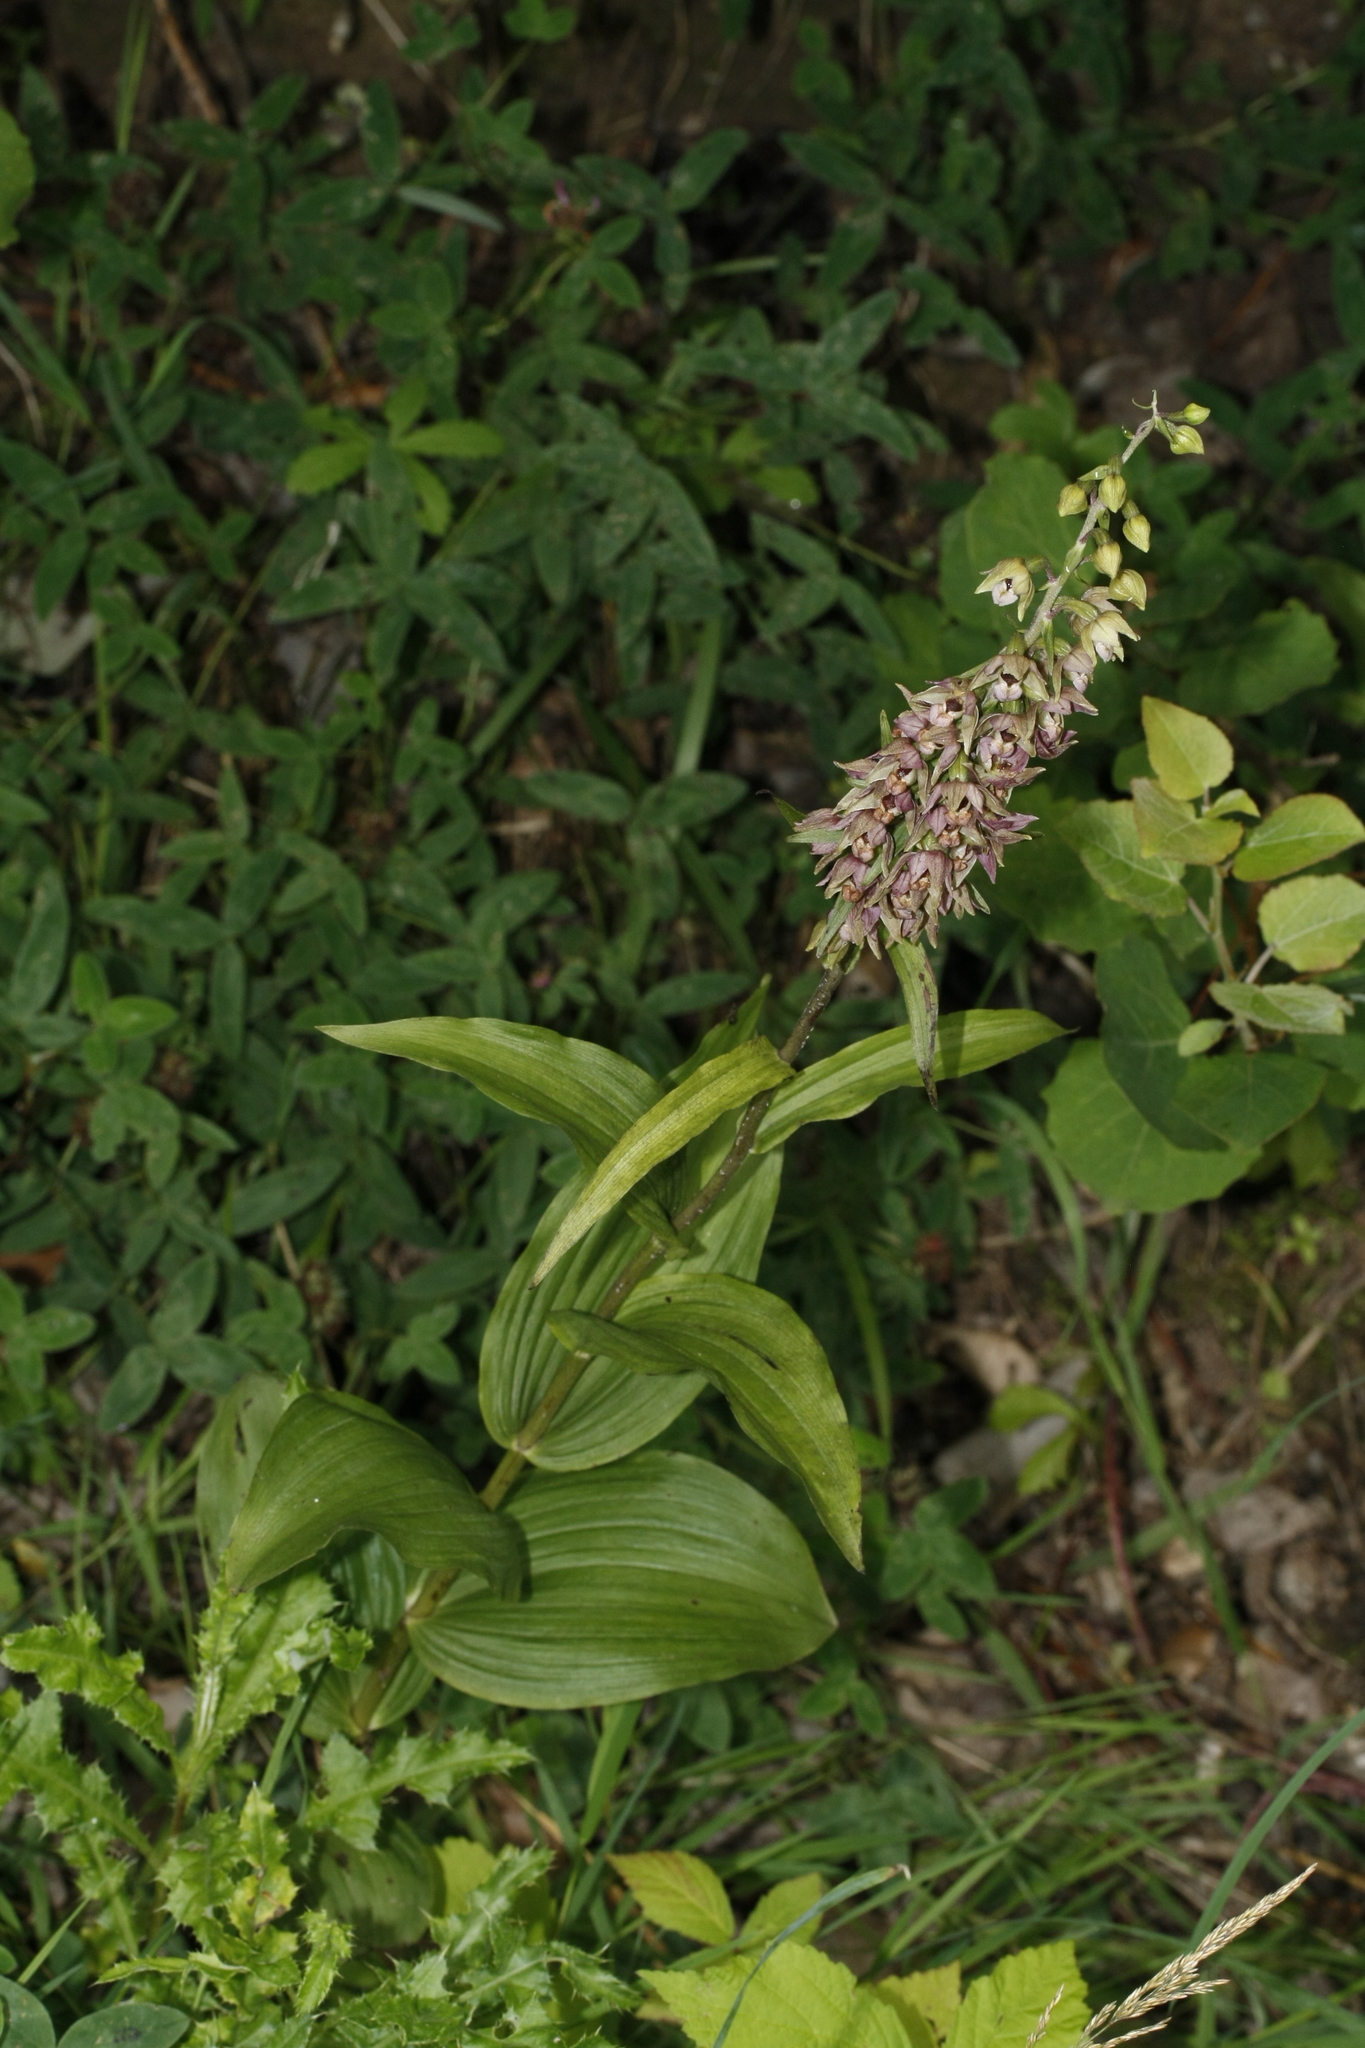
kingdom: Plantae
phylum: Tracheophyta
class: Liliopsida
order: Asparagales
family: Orchidaceae
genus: Epipactis
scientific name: Epipactis helleborine
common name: Broad-leaved helleborine
